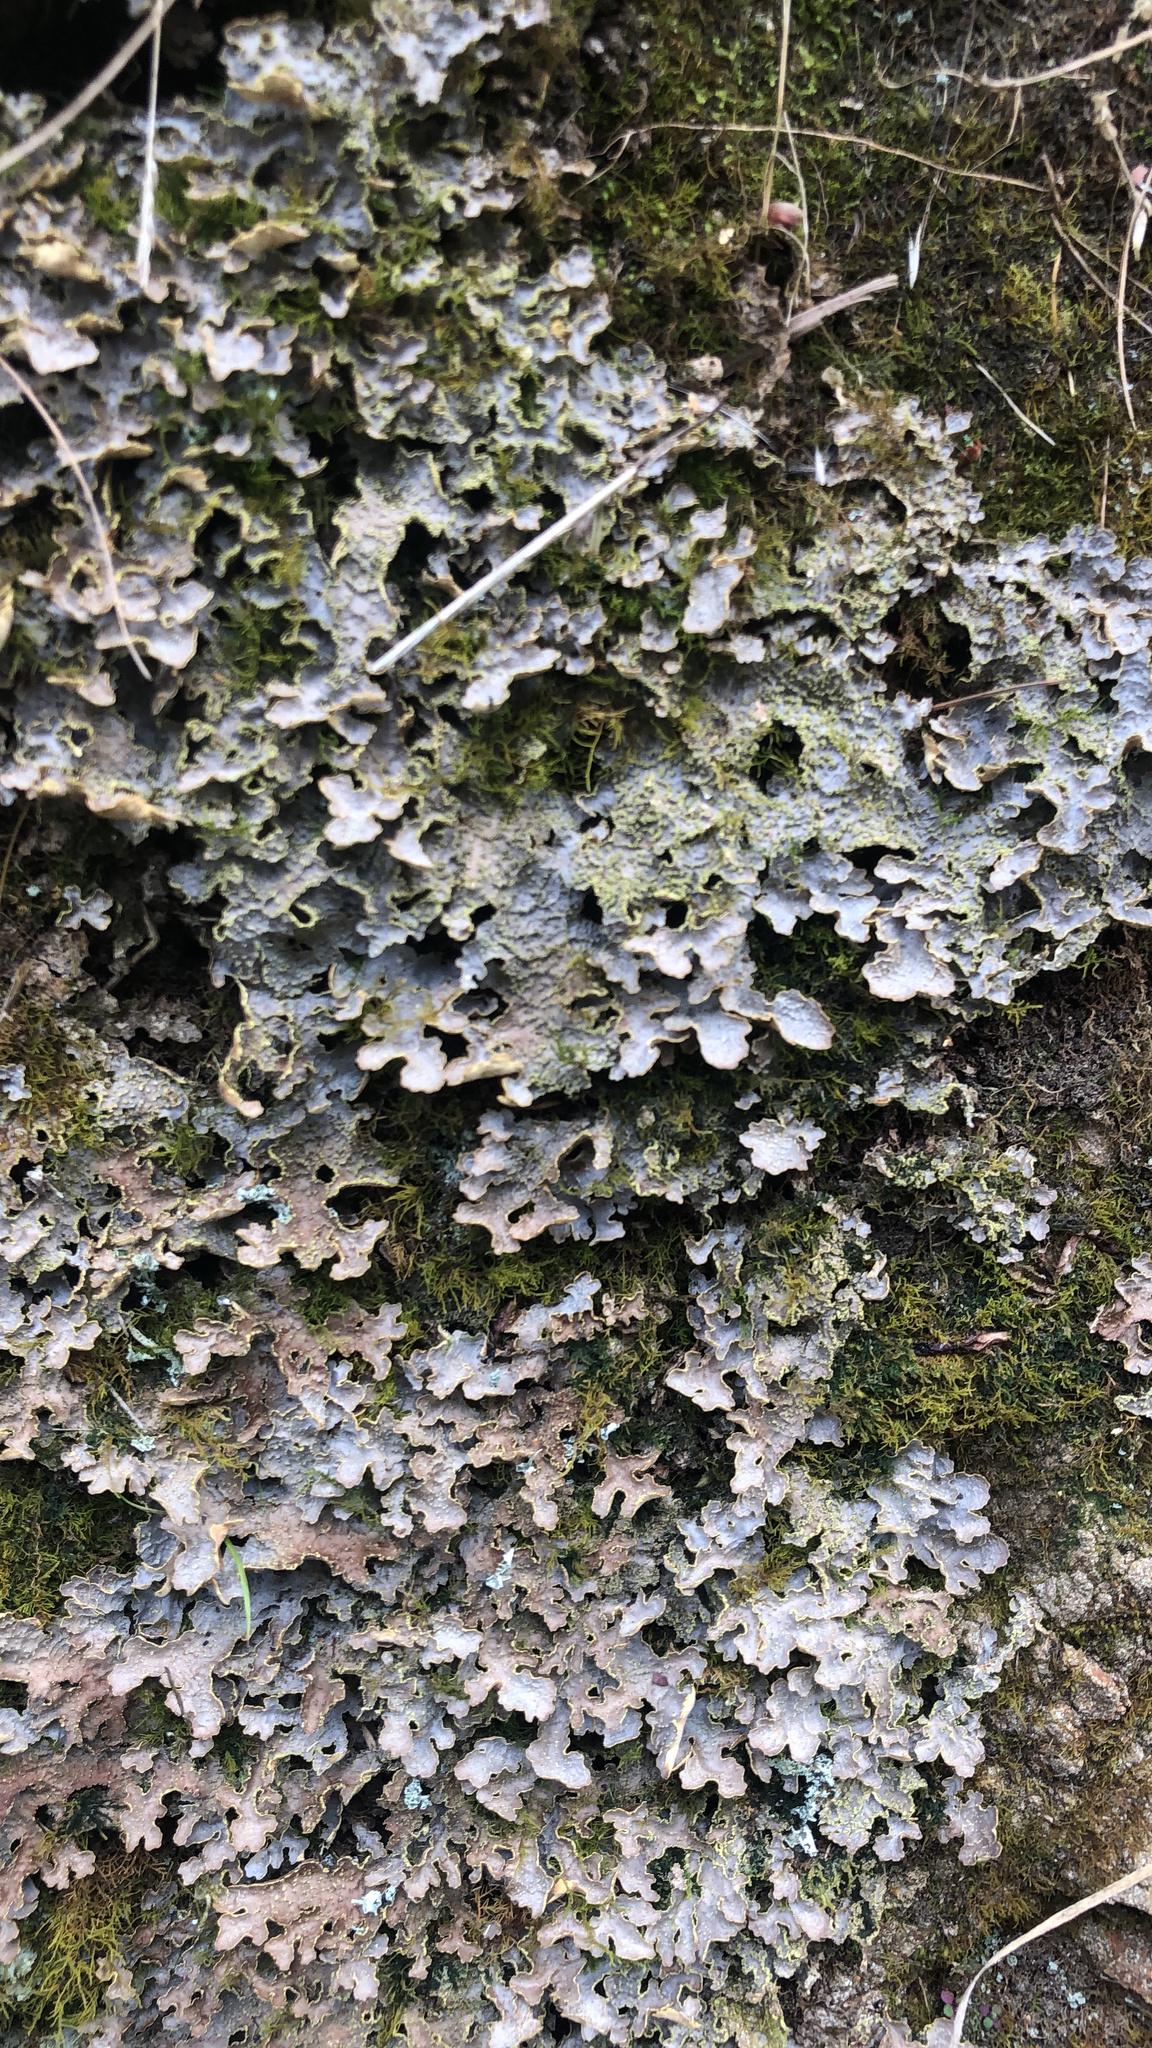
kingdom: Fungi
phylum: Ascomycota
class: Lecanoromycetes
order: Peltigerales
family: Lobariaceae
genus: Pseudocyphellaria
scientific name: Pseudocyphellaria holarctica
